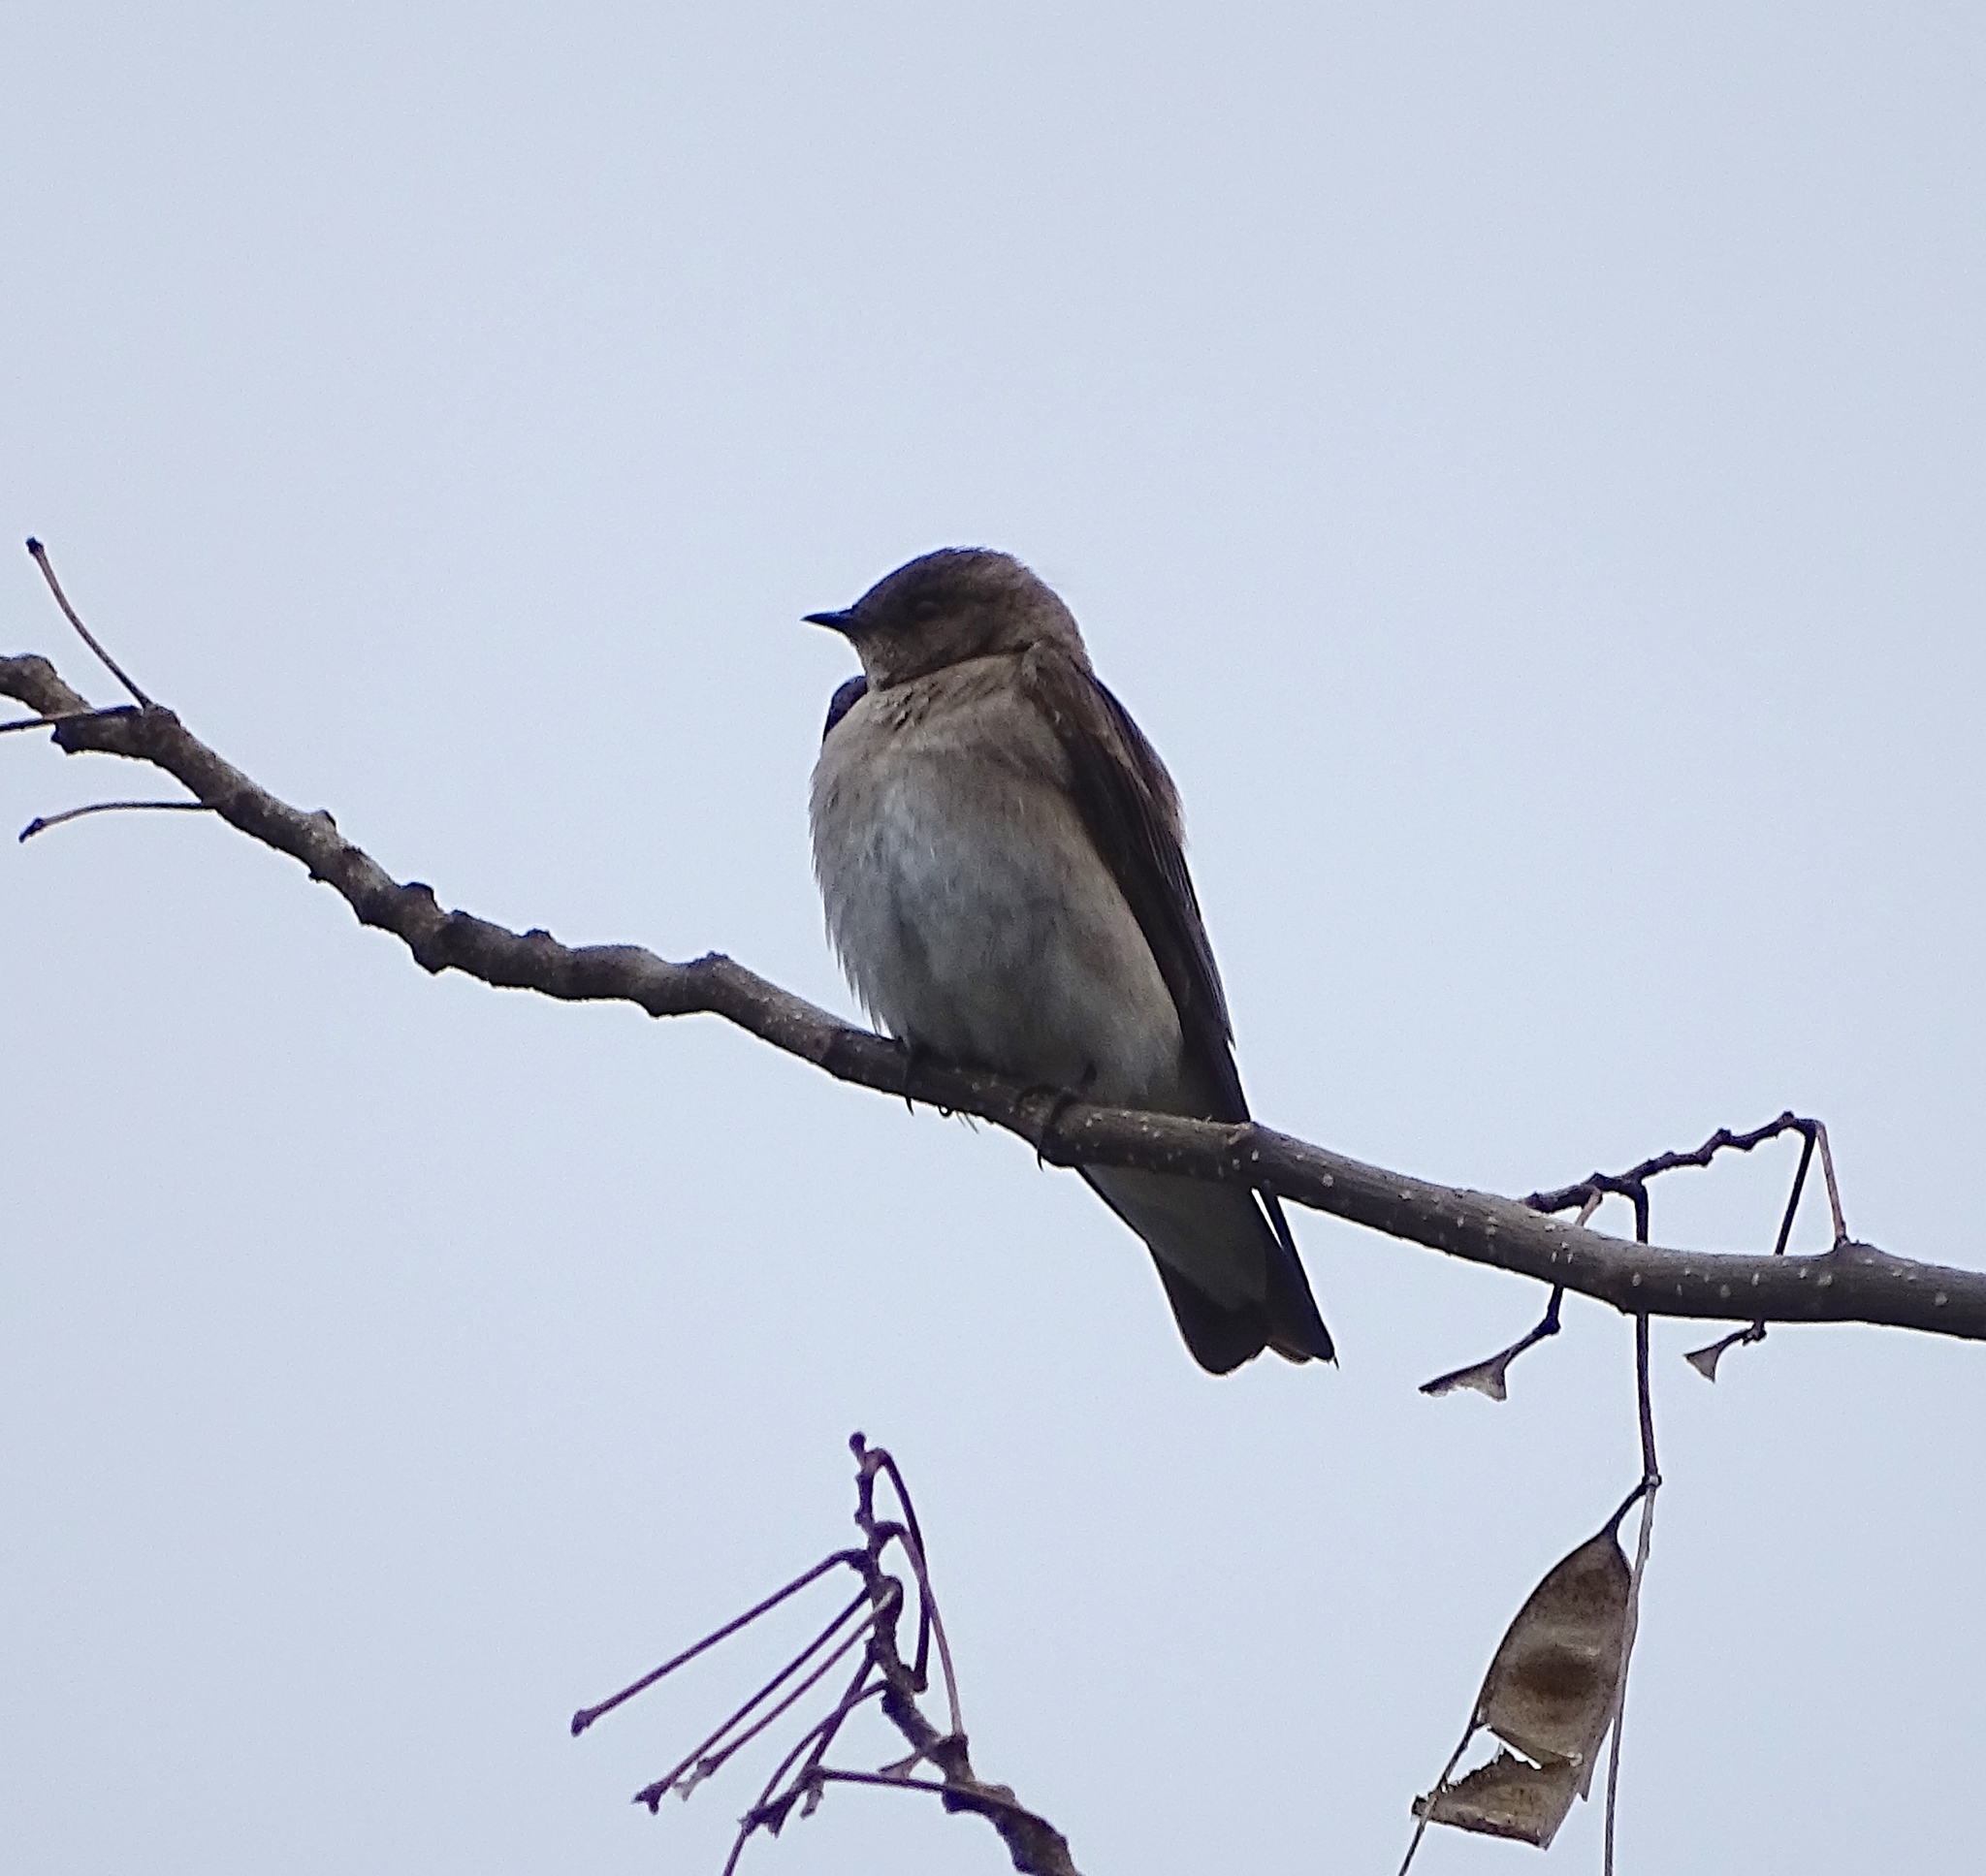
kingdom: Animalia
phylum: Chordata
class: Aves
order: Passeriformes
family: Hirundinidae
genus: Stelgidopteryx
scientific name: Stelgidopteryx serripennis
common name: Northern rough-winged swallow
